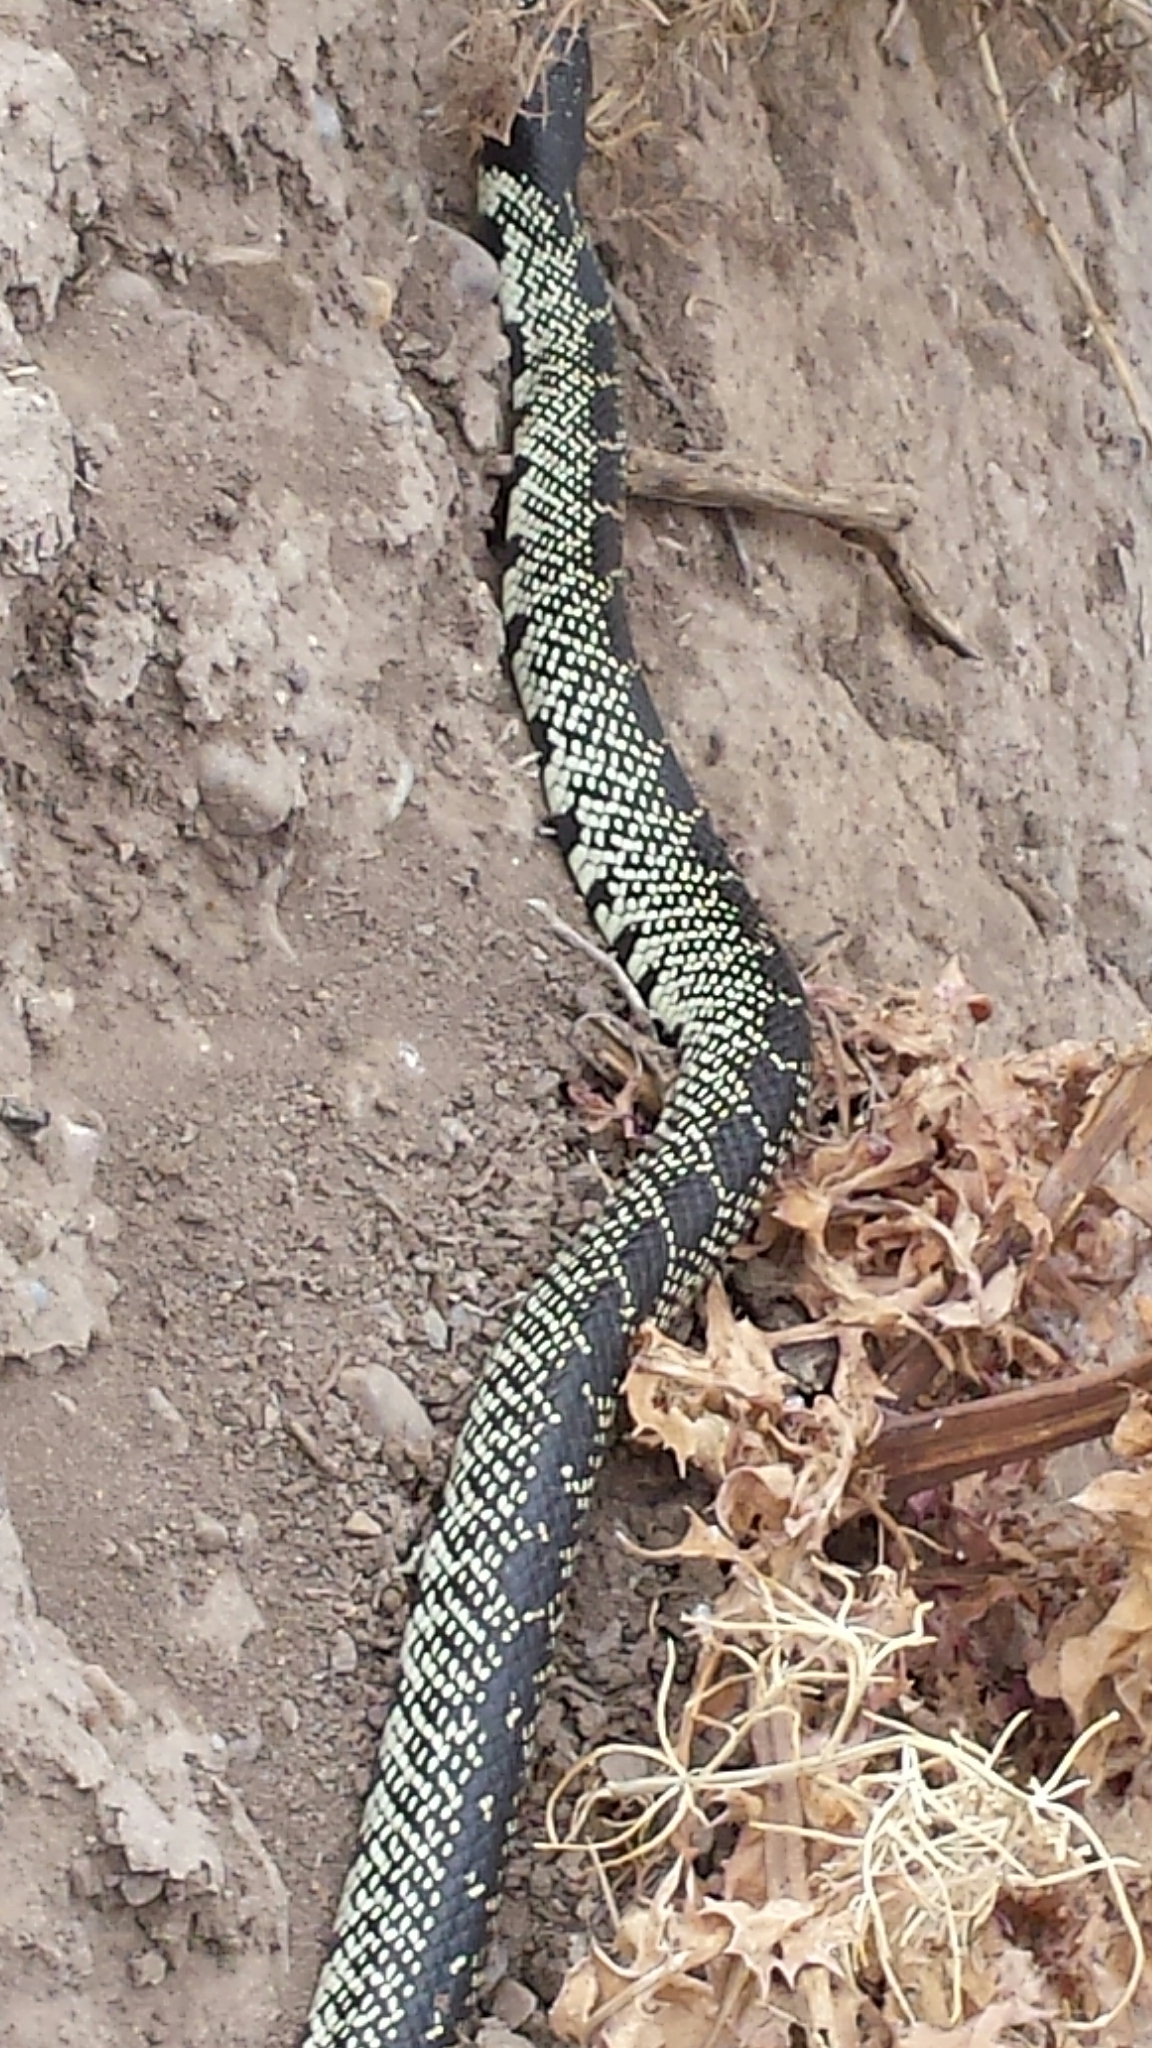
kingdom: Animalia
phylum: Chordata
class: Squamata
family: Colubridae
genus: Lampropeltis
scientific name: Lampropeltis splendida
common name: Desert kingsnake
